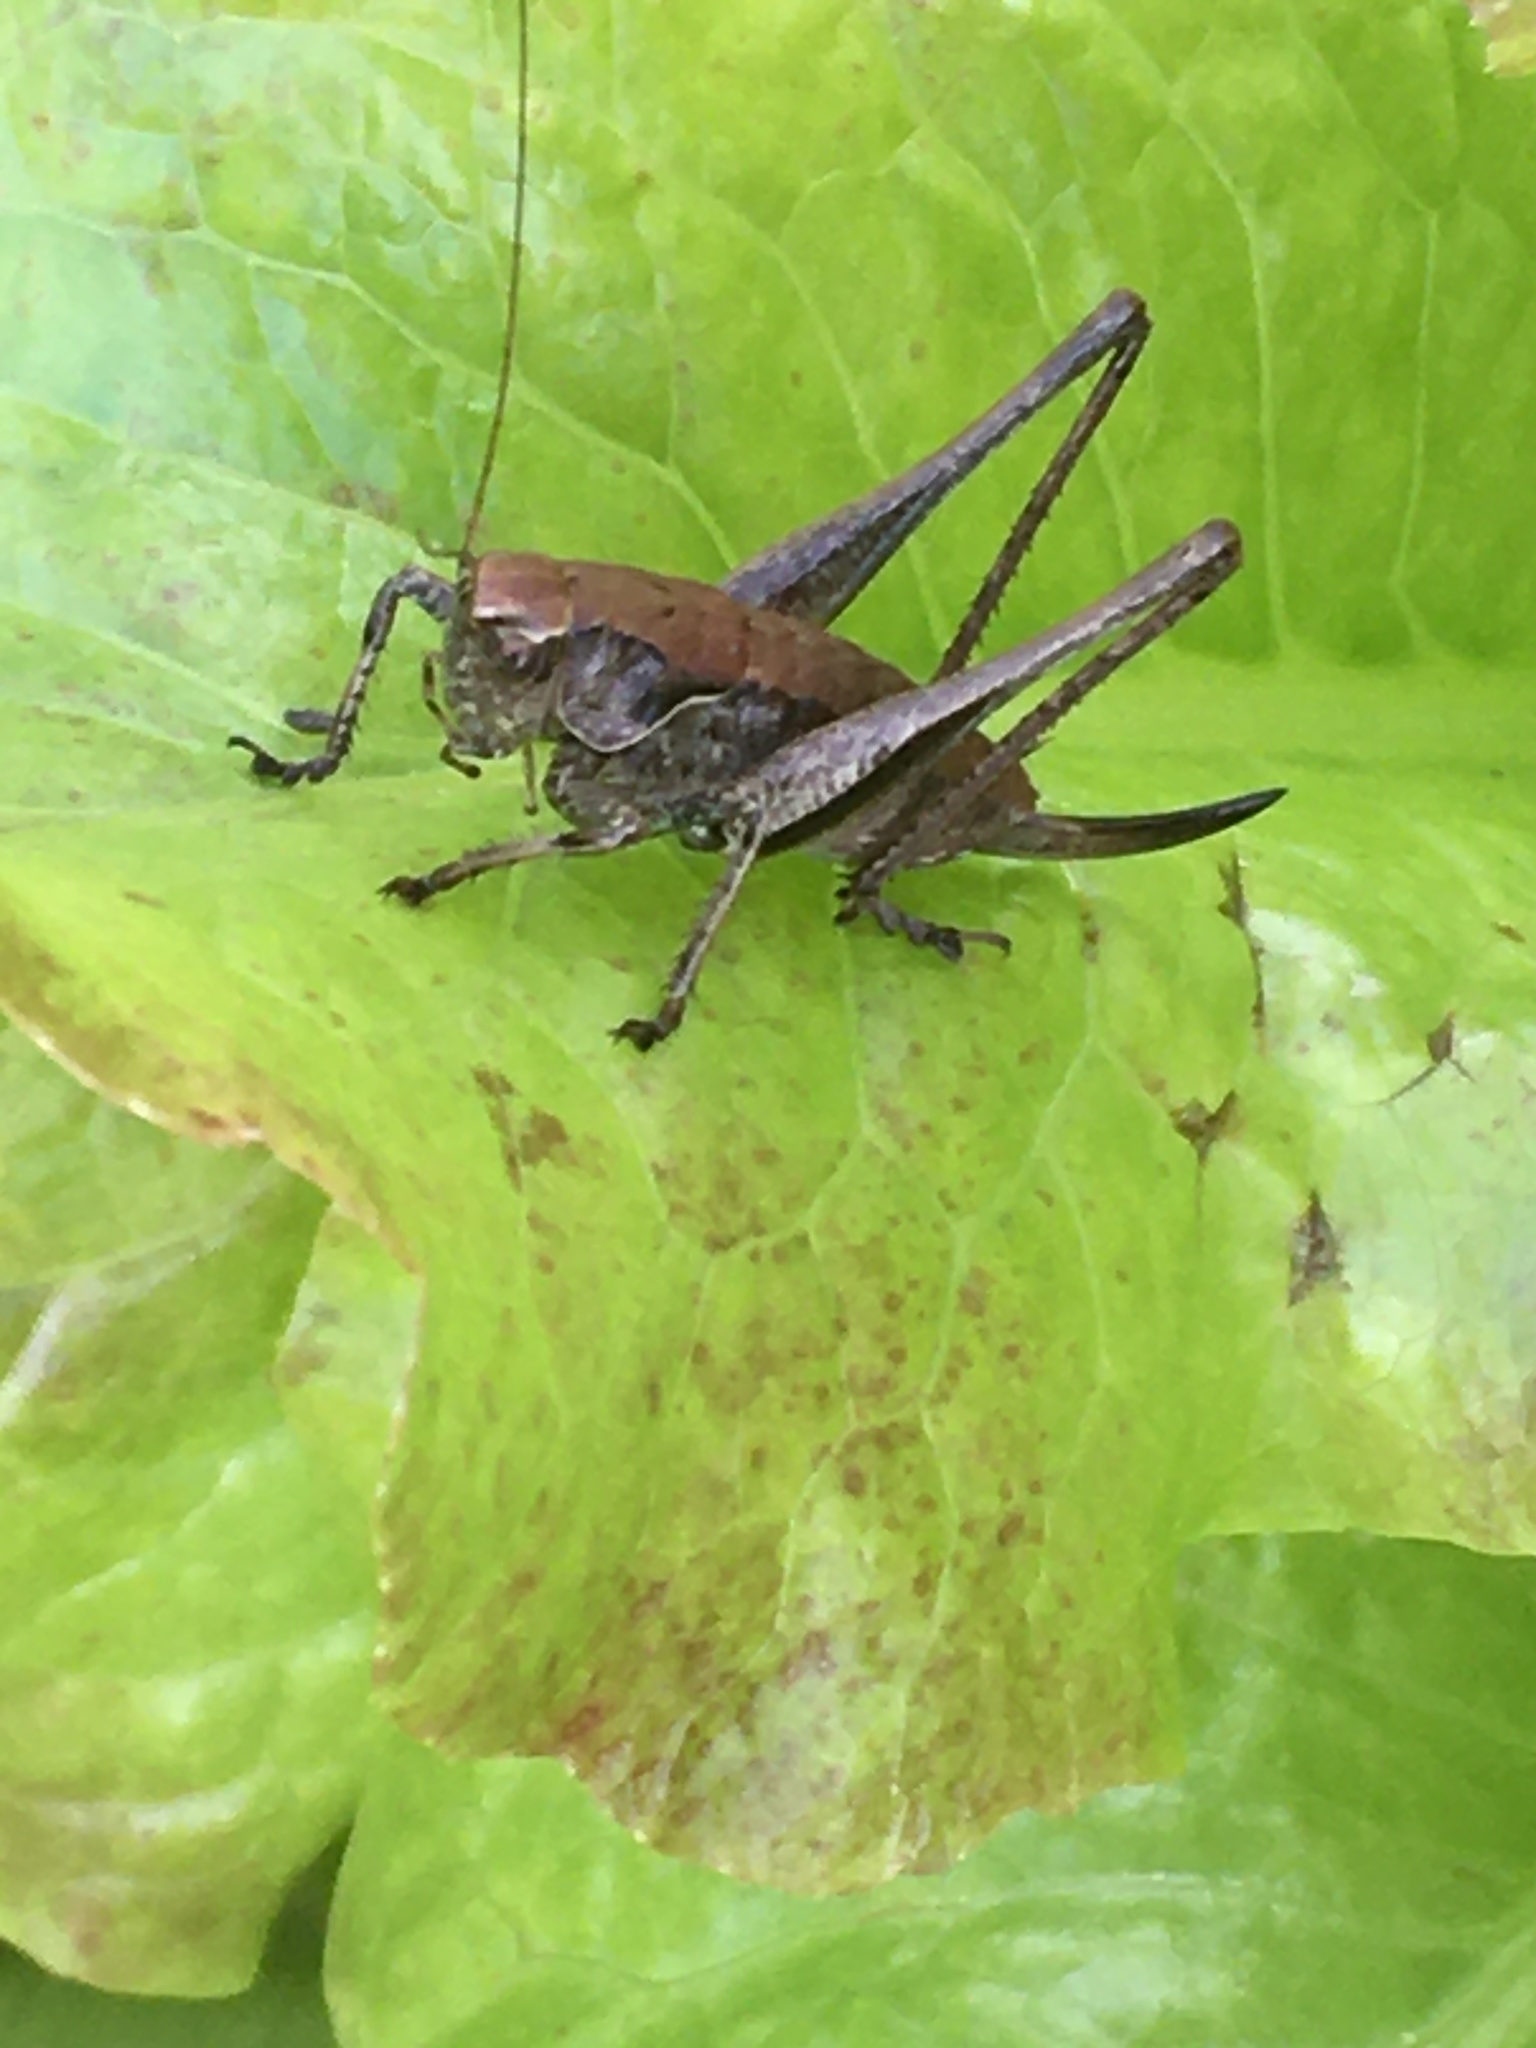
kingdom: Animalia
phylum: Arthropoda
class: Insecta
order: Orthoptera
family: Tettigoniidae
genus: Pholidoptera
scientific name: Pholidoptera griseoaptera
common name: Dark bush-cricket
